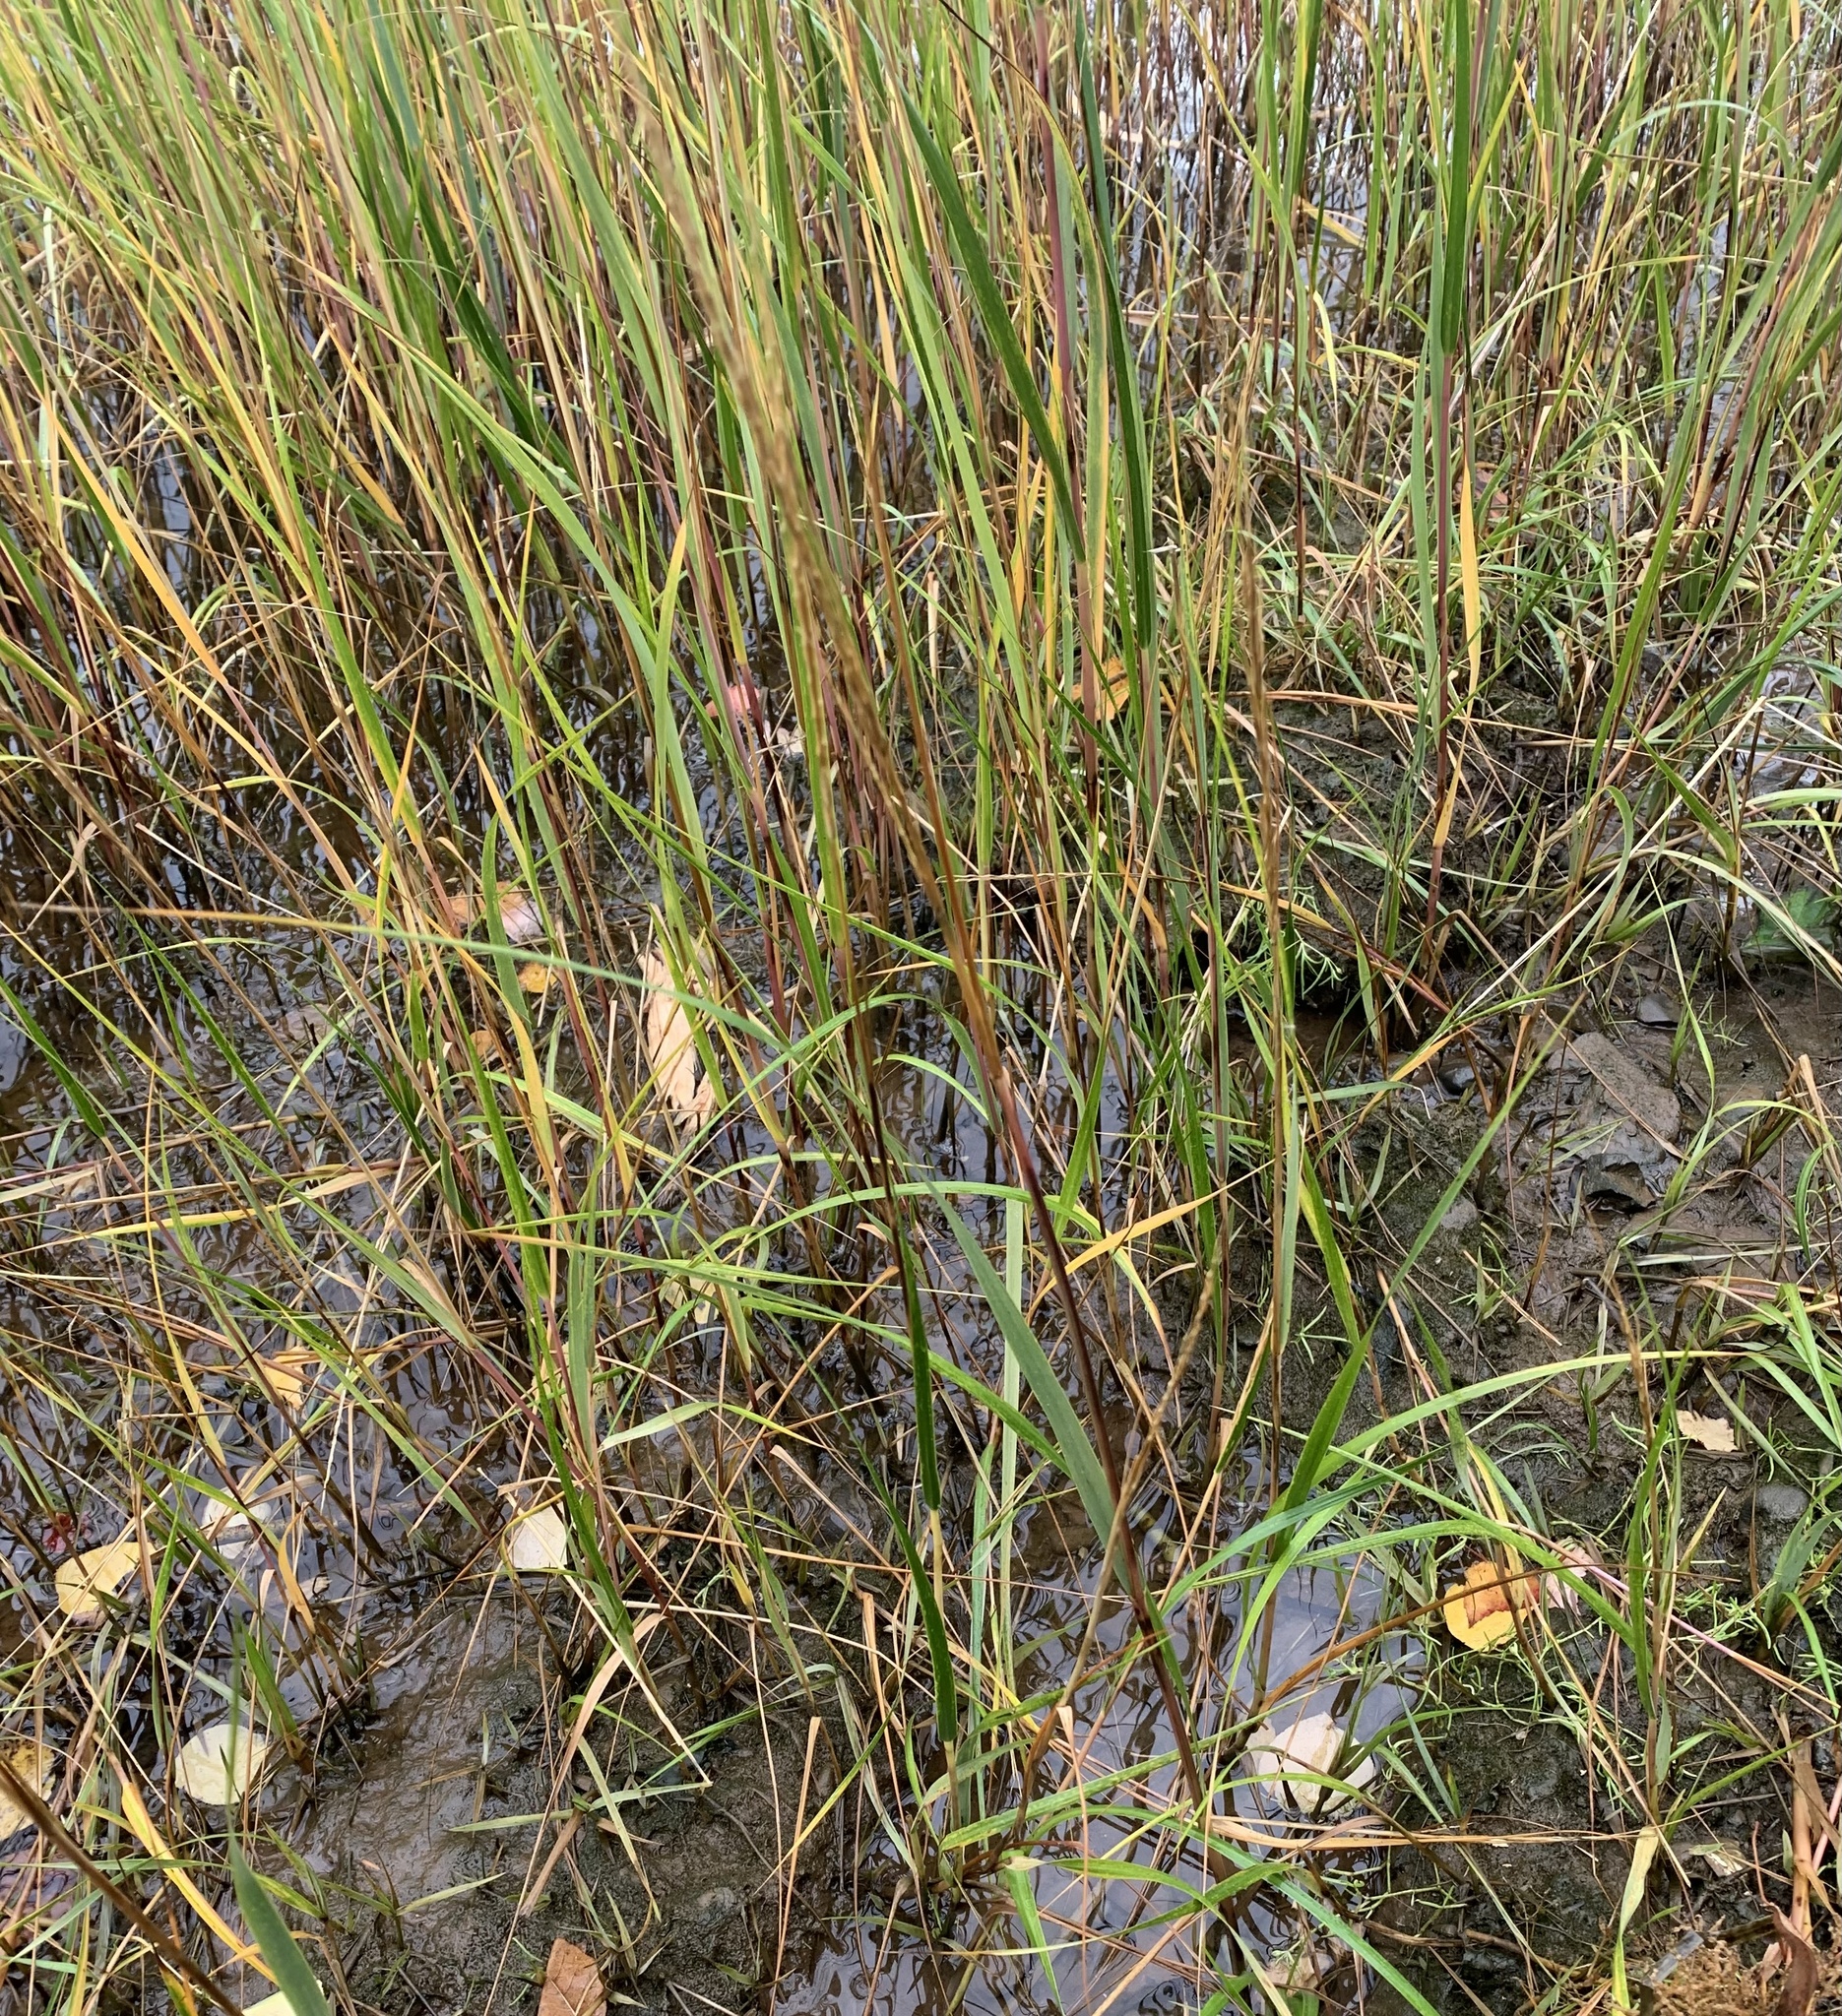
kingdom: Plantae
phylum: Tracheophyta
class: Liliopsida
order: Poales
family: Poaceae
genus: Sporobolus
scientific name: Sporobolus alterniflorus
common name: Atlantic cordgrass
